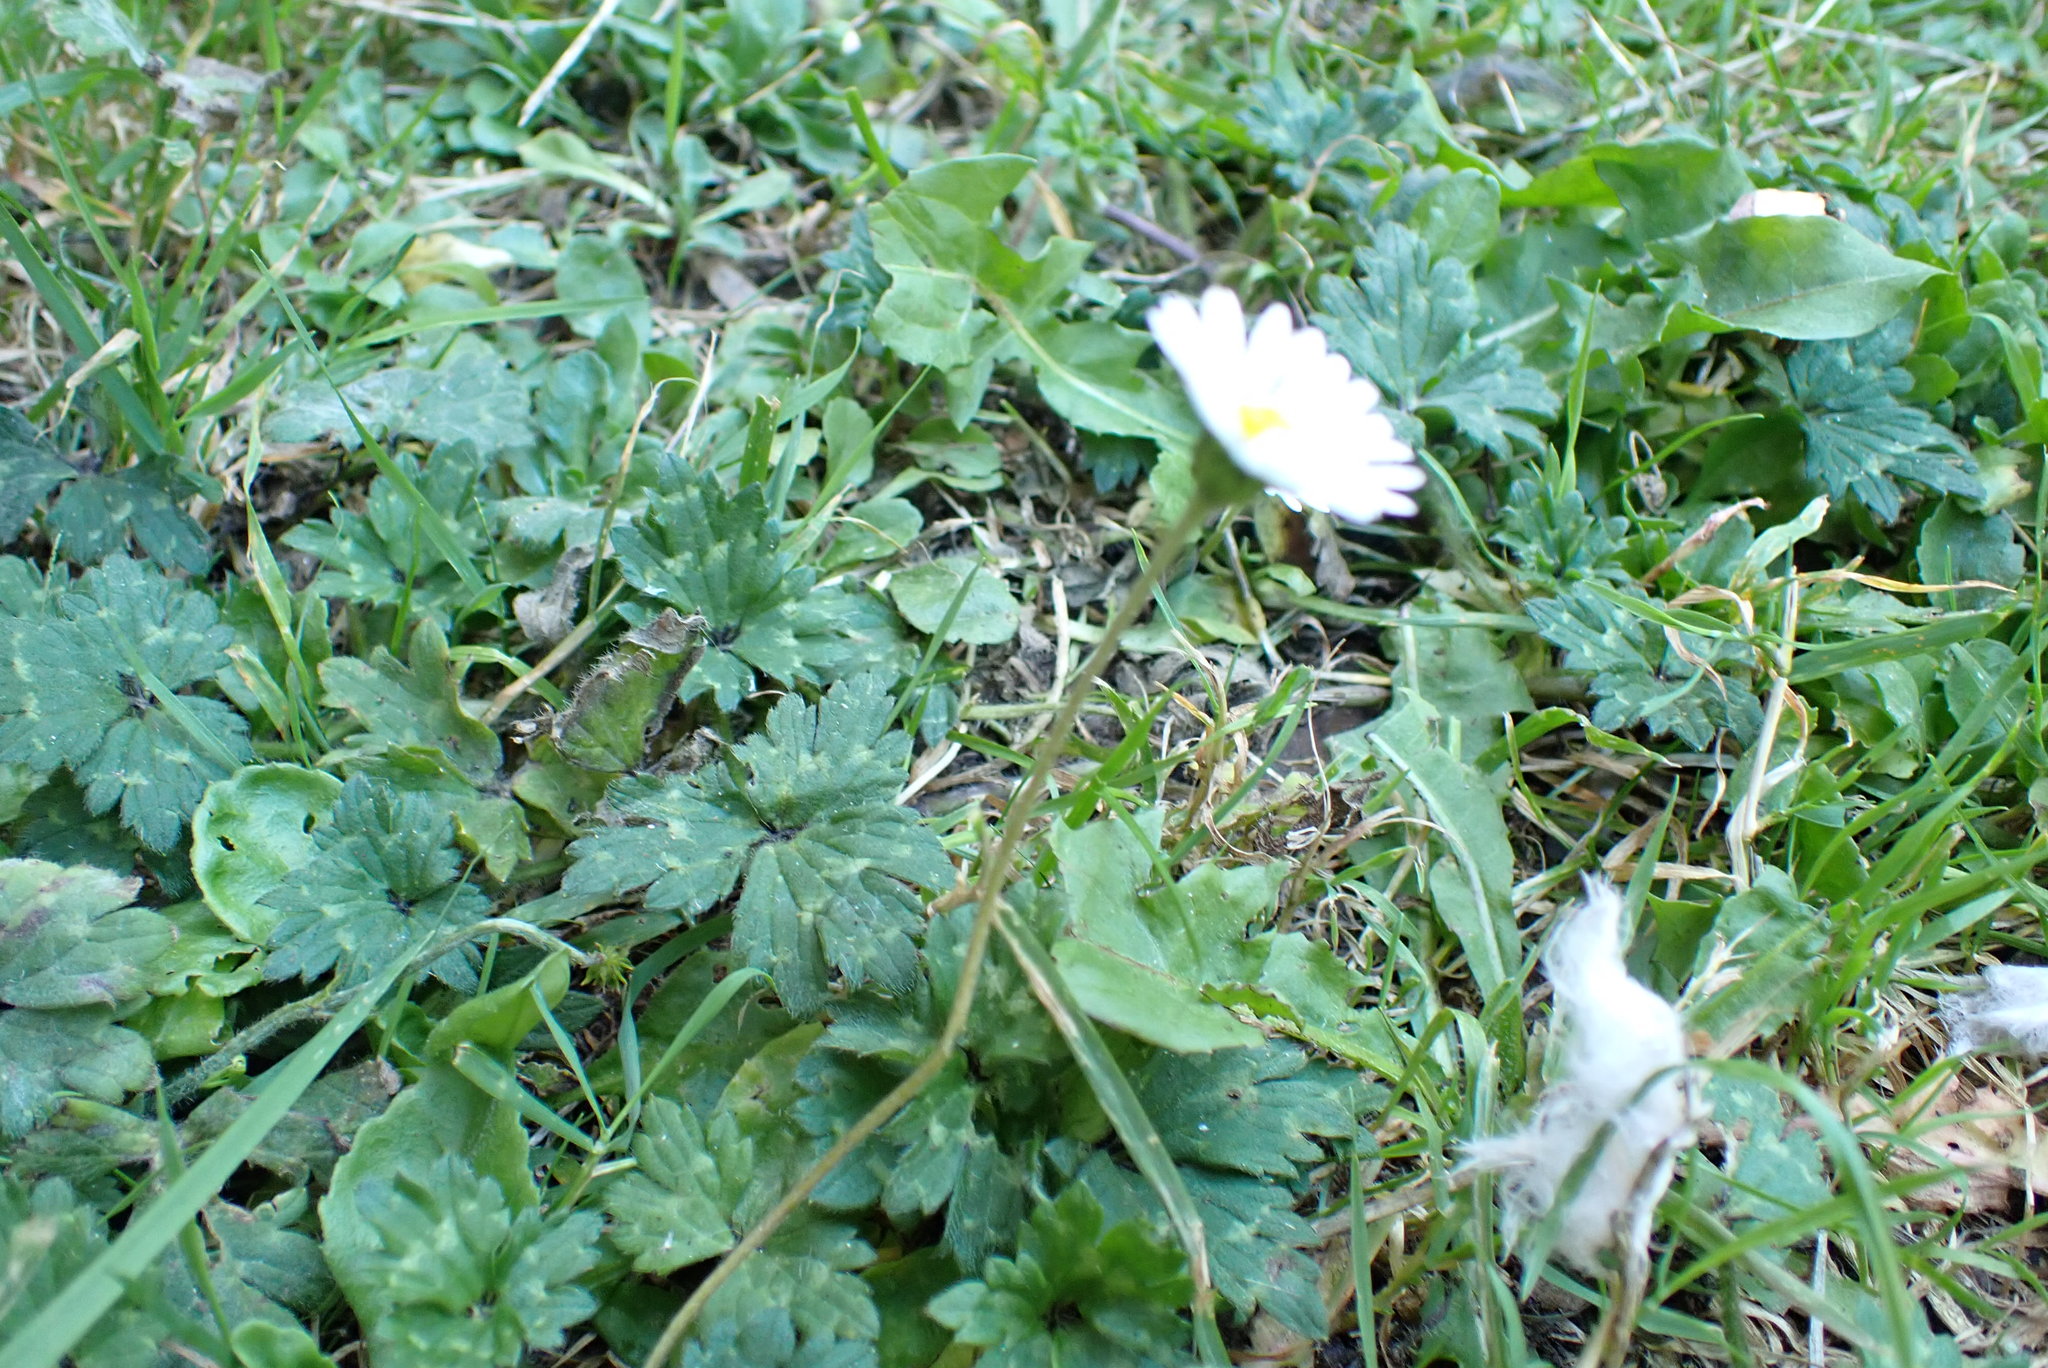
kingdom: Plantae
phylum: Tracheophyta
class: Magnoliopsida
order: Asterales
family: Asteraceae
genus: Bellis
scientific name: Bellis perennis
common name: Lawndaisy
